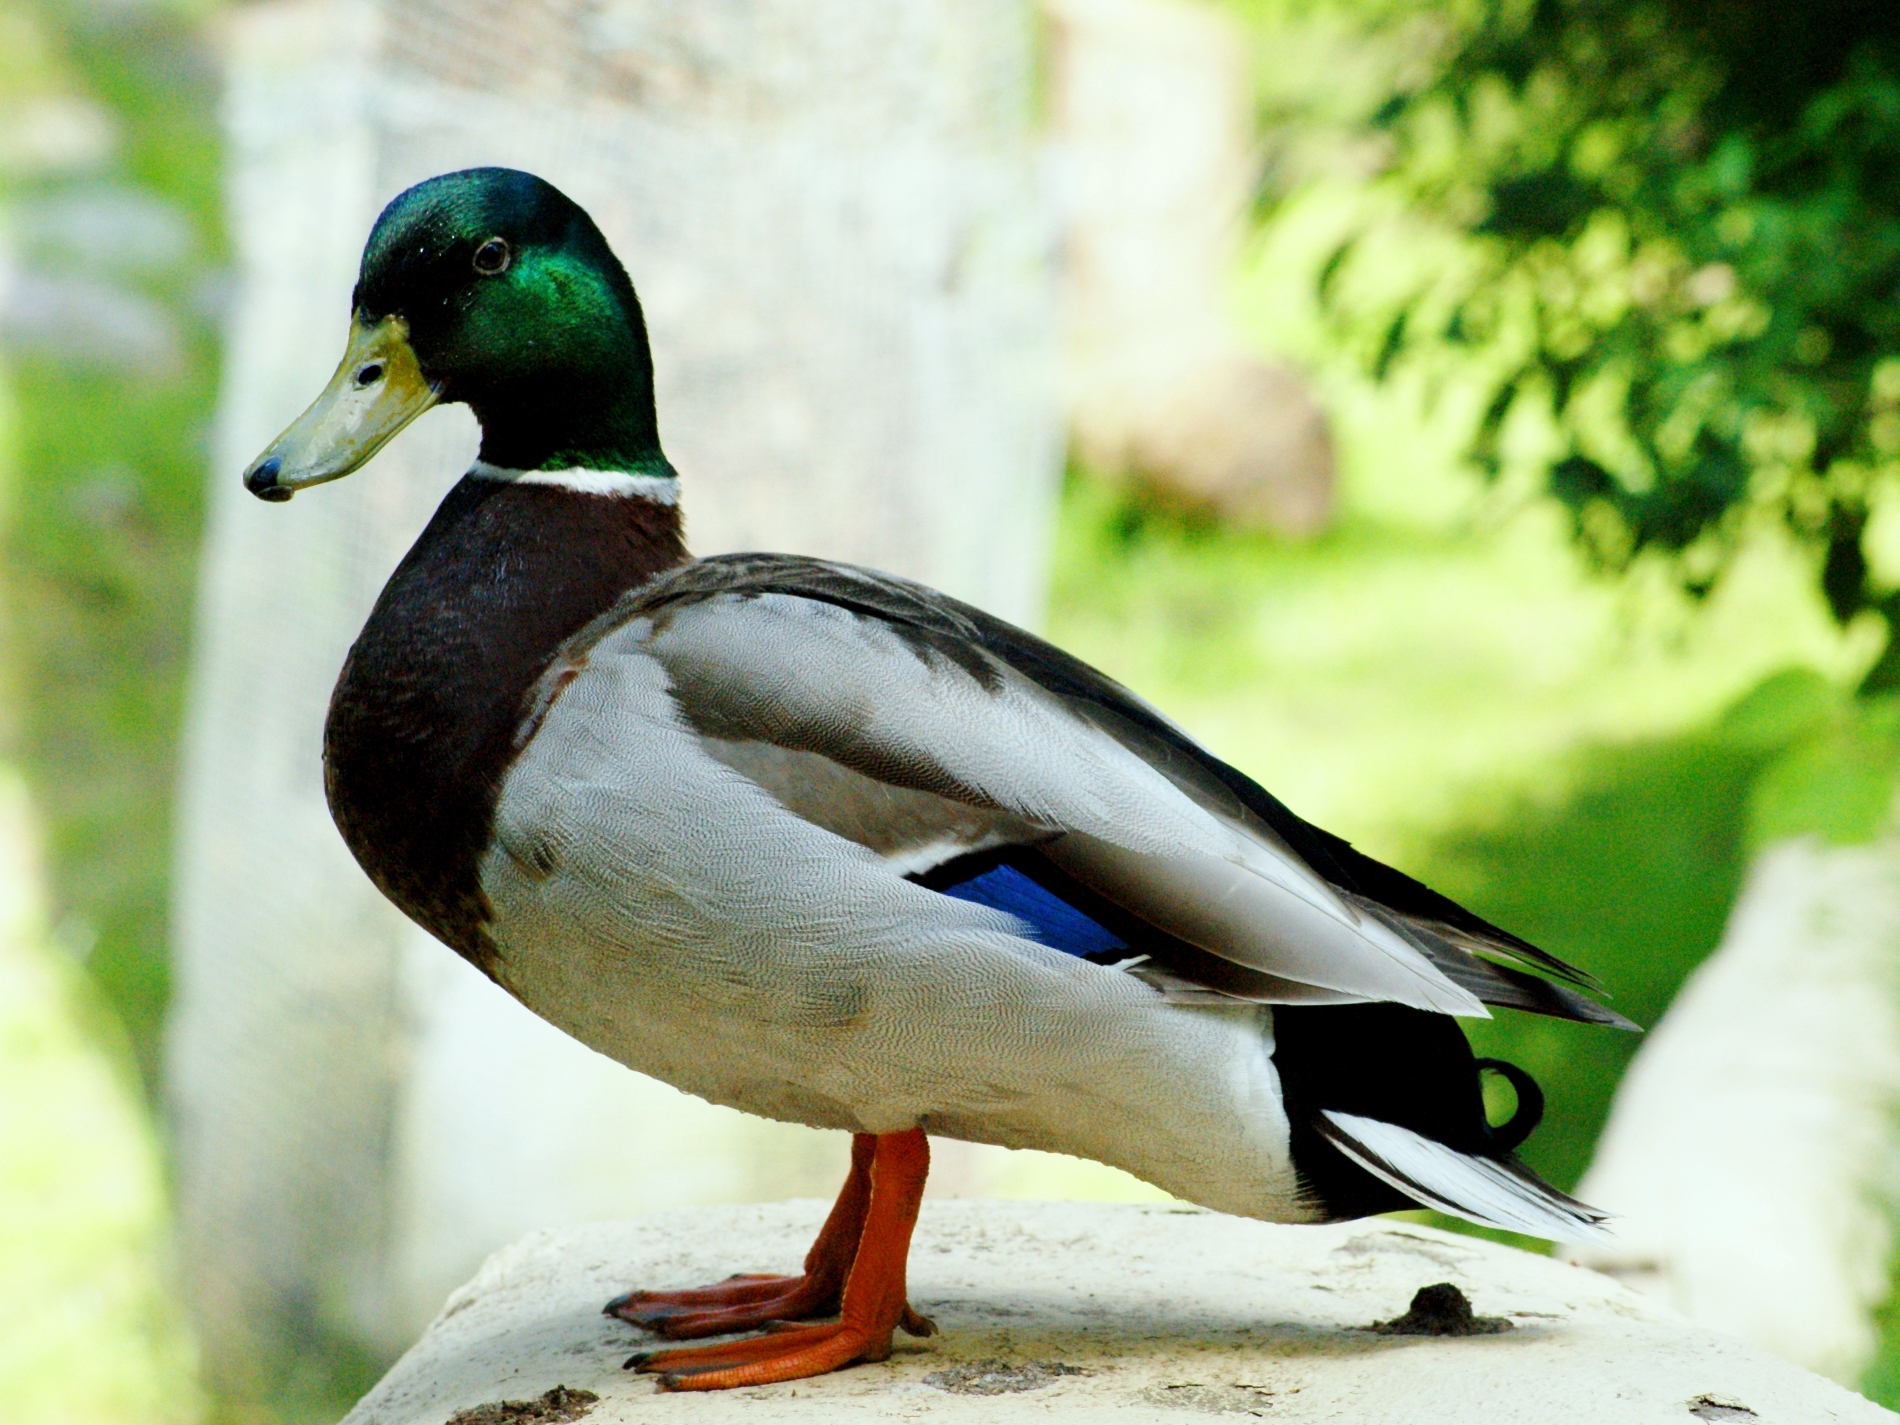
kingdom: Animalia
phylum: Chordata
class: Aves
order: Anseriformes
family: Anatidae
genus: Anas
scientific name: Anas platyrhynchos
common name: Mallard
